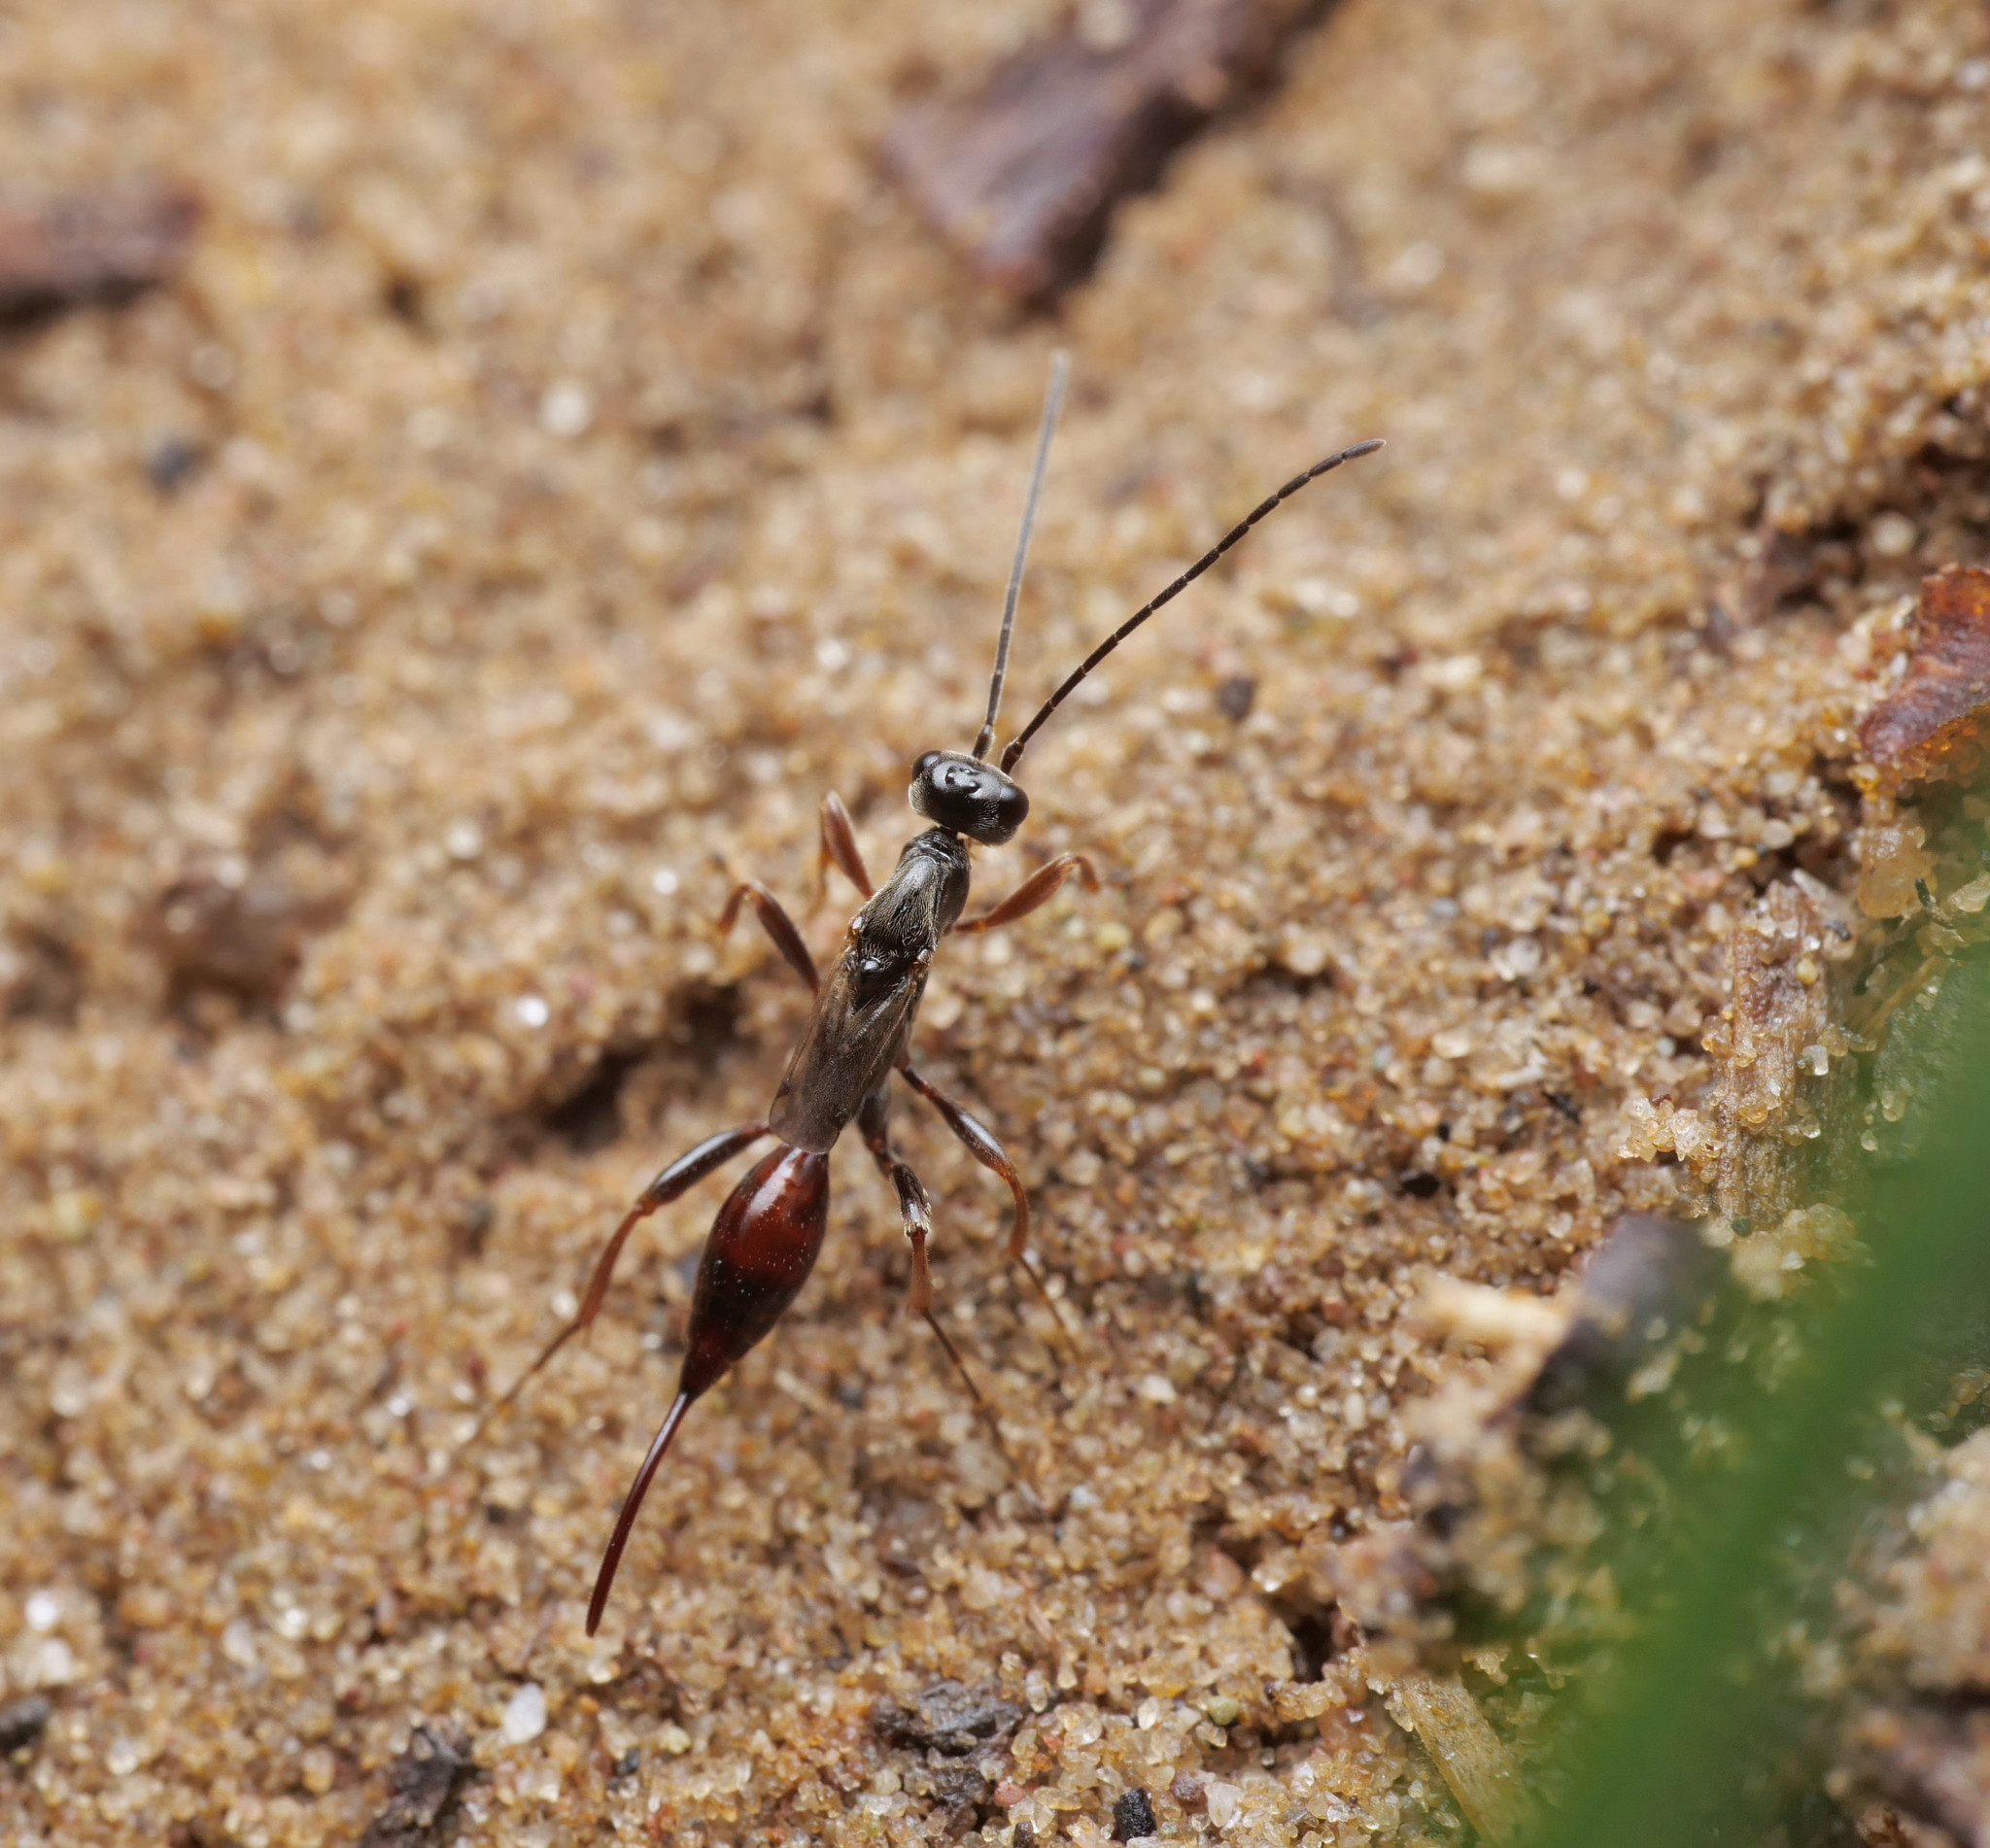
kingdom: Animalia
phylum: Arthropoda
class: Insecta
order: Hymenoptera
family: Proctotrupidae
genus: Proctotrupes
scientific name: Proctotrupes brachypterus
